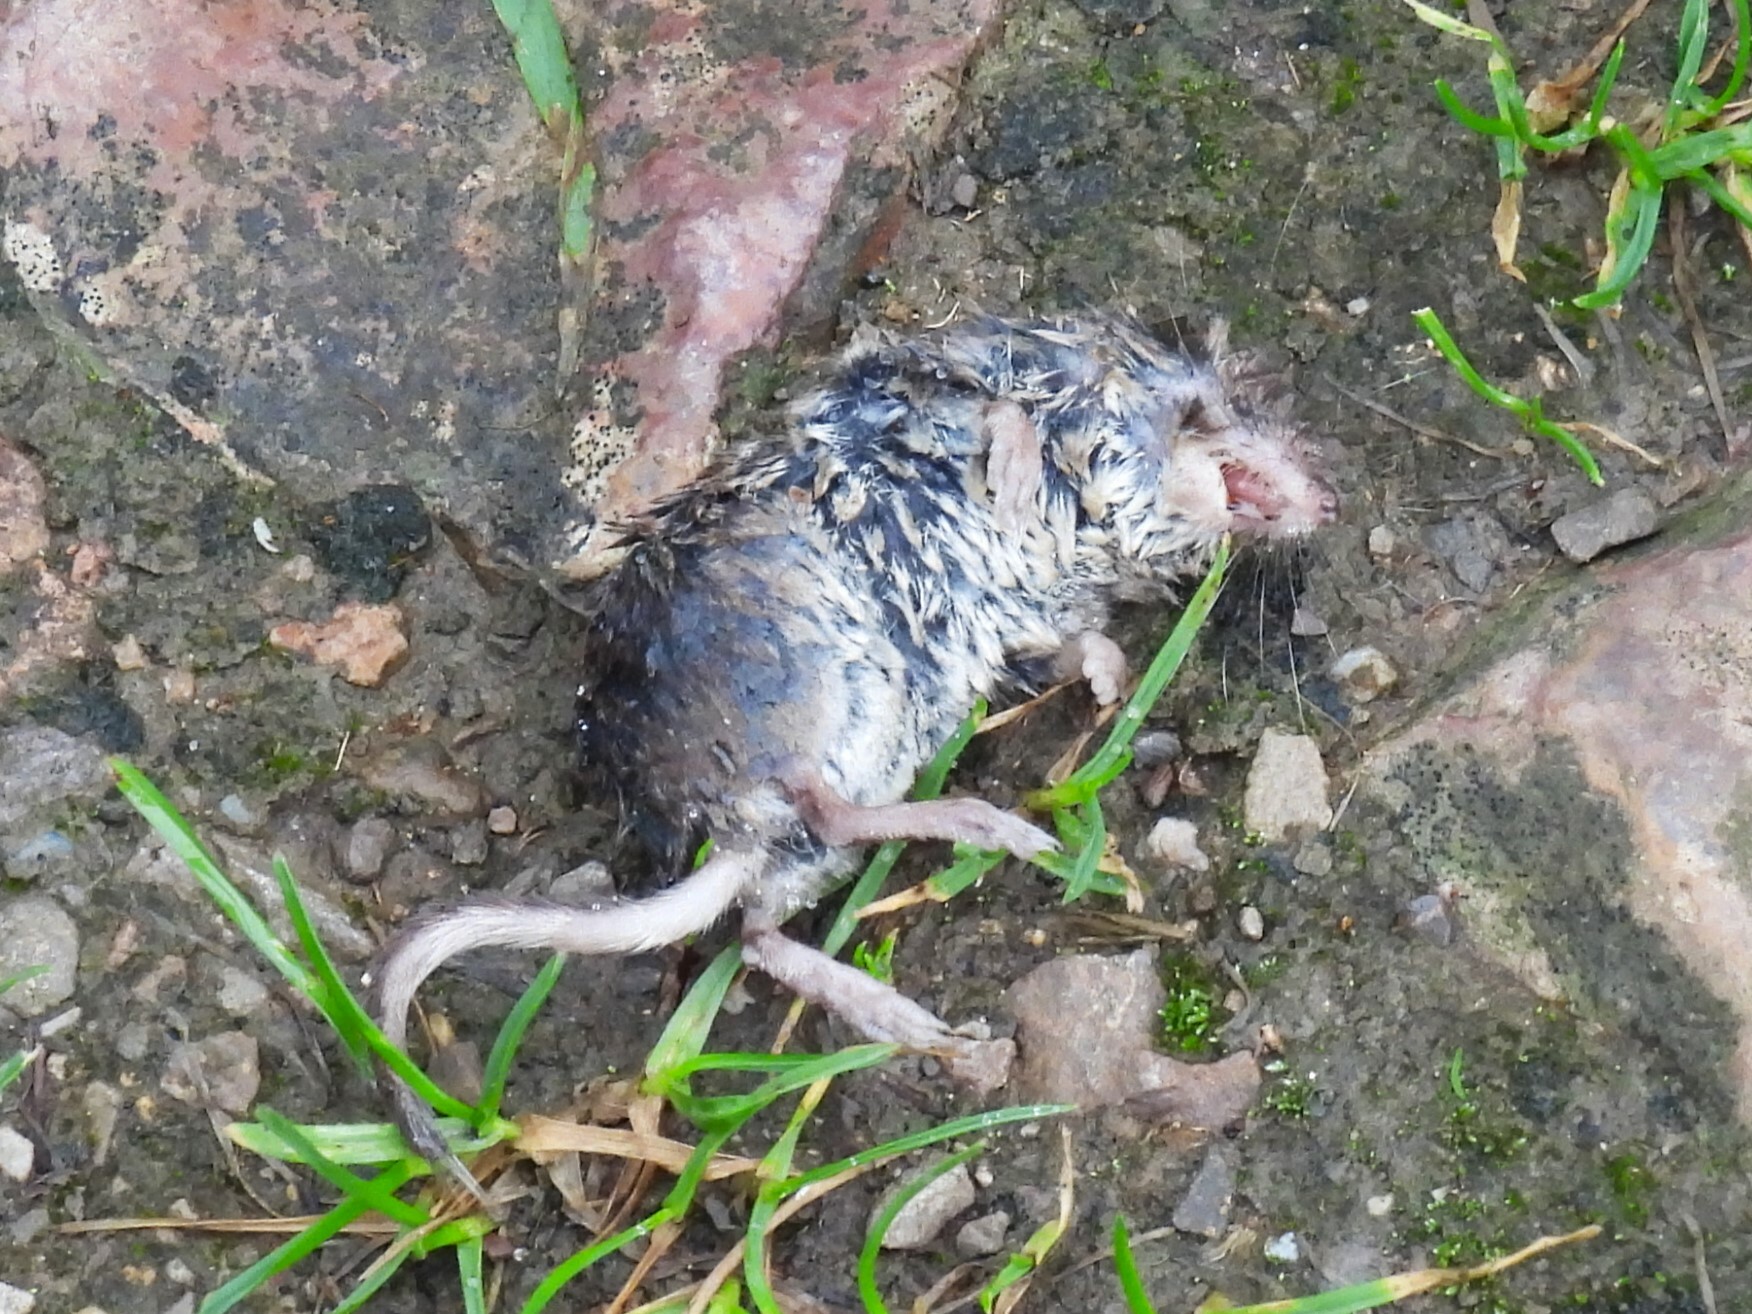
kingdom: Animalia
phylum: Chordata
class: Mammalia
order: Soricomorpha
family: Soricidae
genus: Sorex
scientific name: Sorex araneus
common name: Common shrew
